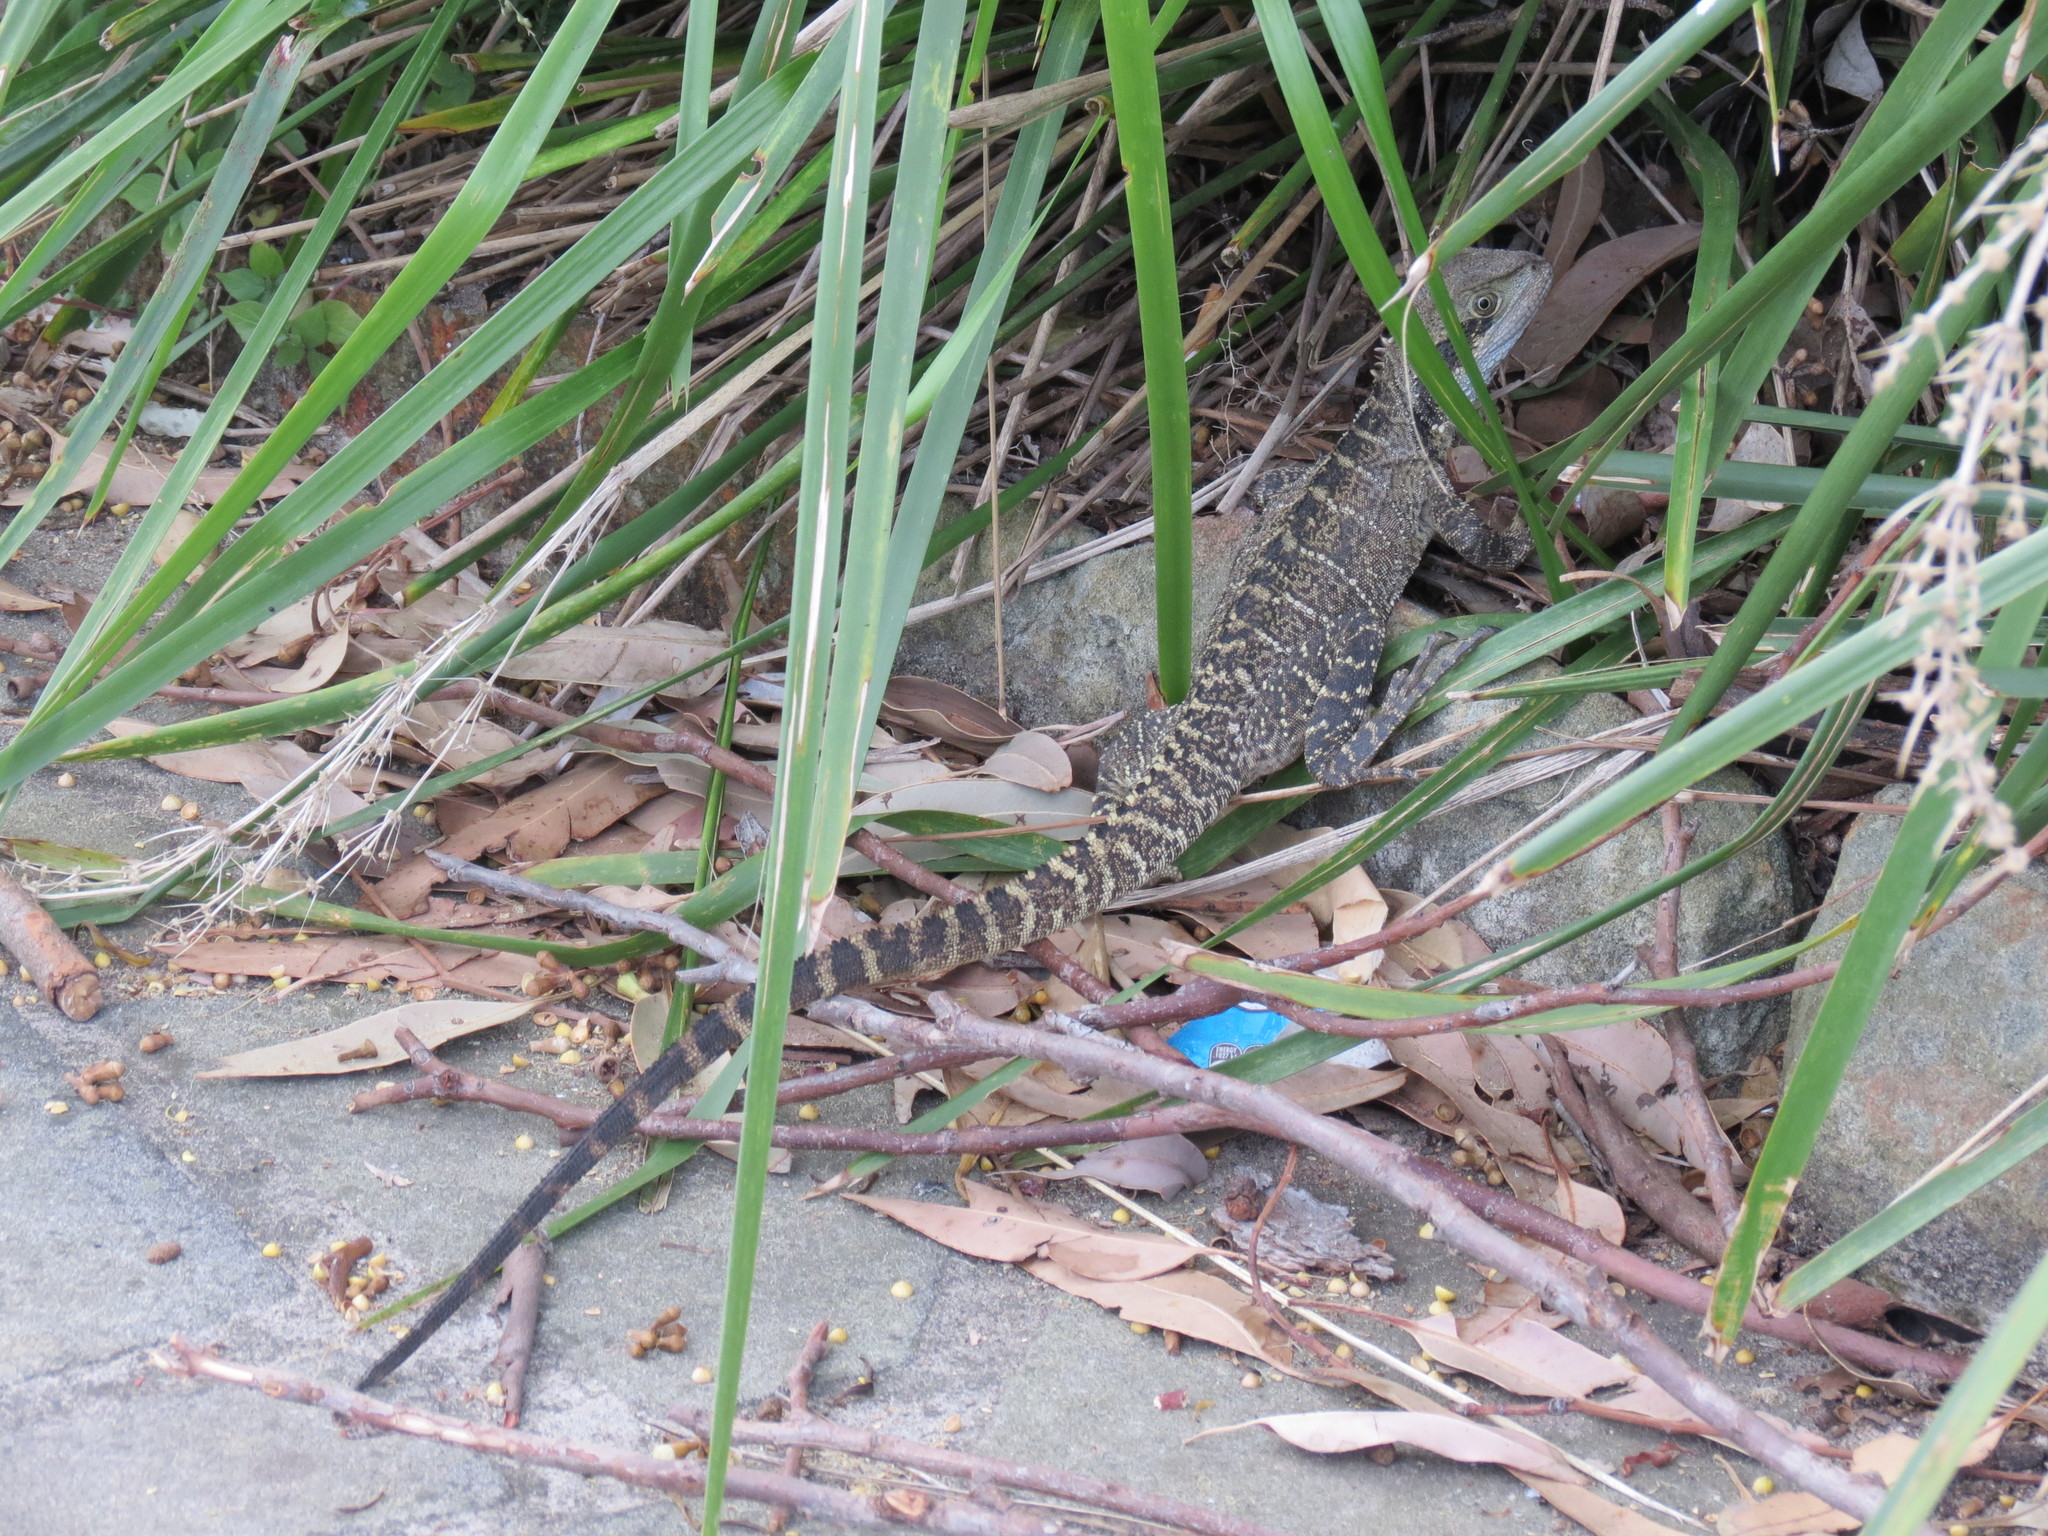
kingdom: Animalia
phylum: Chordata
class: Squamata
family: Agamidae
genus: Intellagama
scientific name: Intellagama lesueurii
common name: Eastern water dragon
